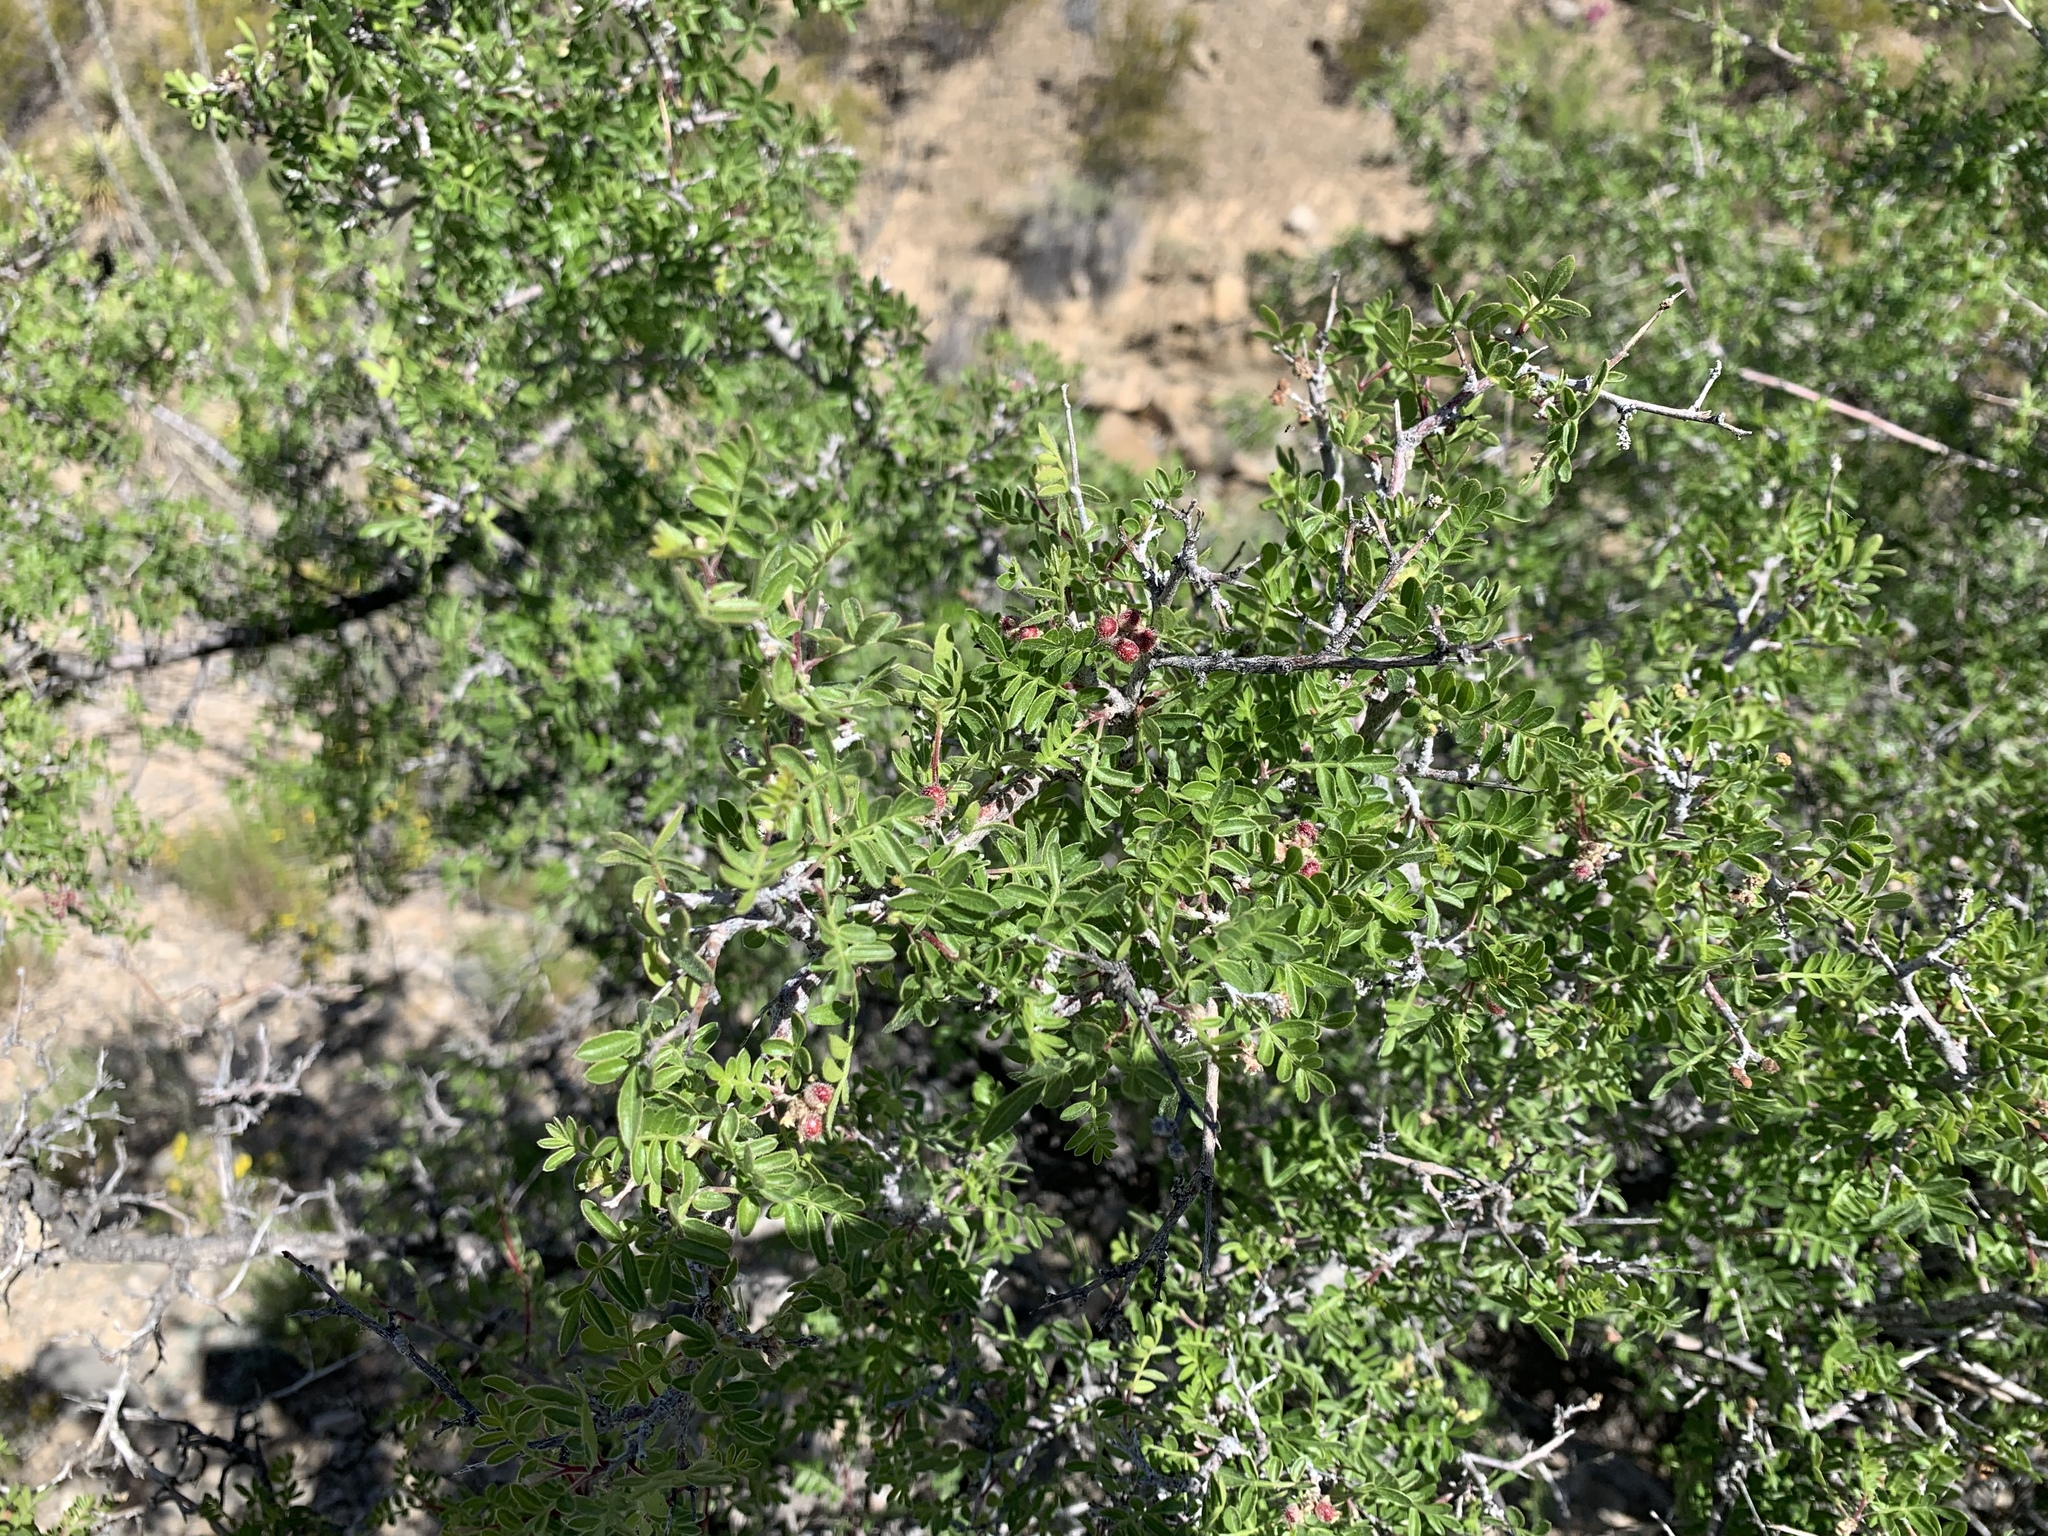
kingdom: Plantae
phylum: Tracheophyta
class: Magnoliopsida
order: Sapindales
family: Anacardiaceae
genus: Rhus
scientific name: Rhus microphylla
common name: Desert sumac
